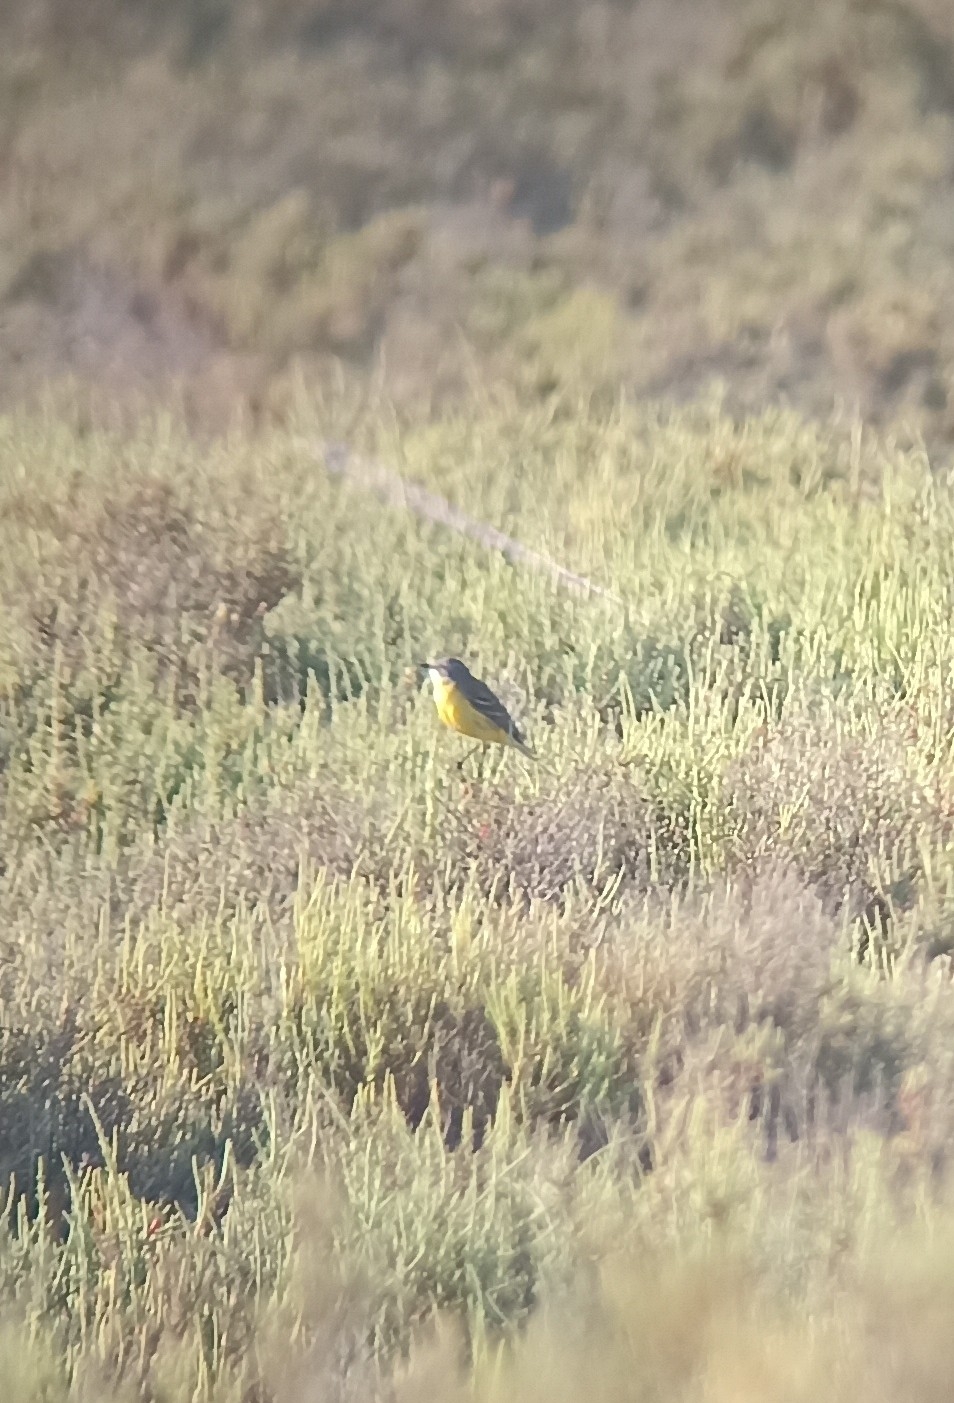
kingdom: Animalia
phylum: Chordata
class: Aves
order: Passeriformes
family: Motacillidae
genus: Motacilla
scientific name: Motacilla flava
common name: Western yellow wagtail
